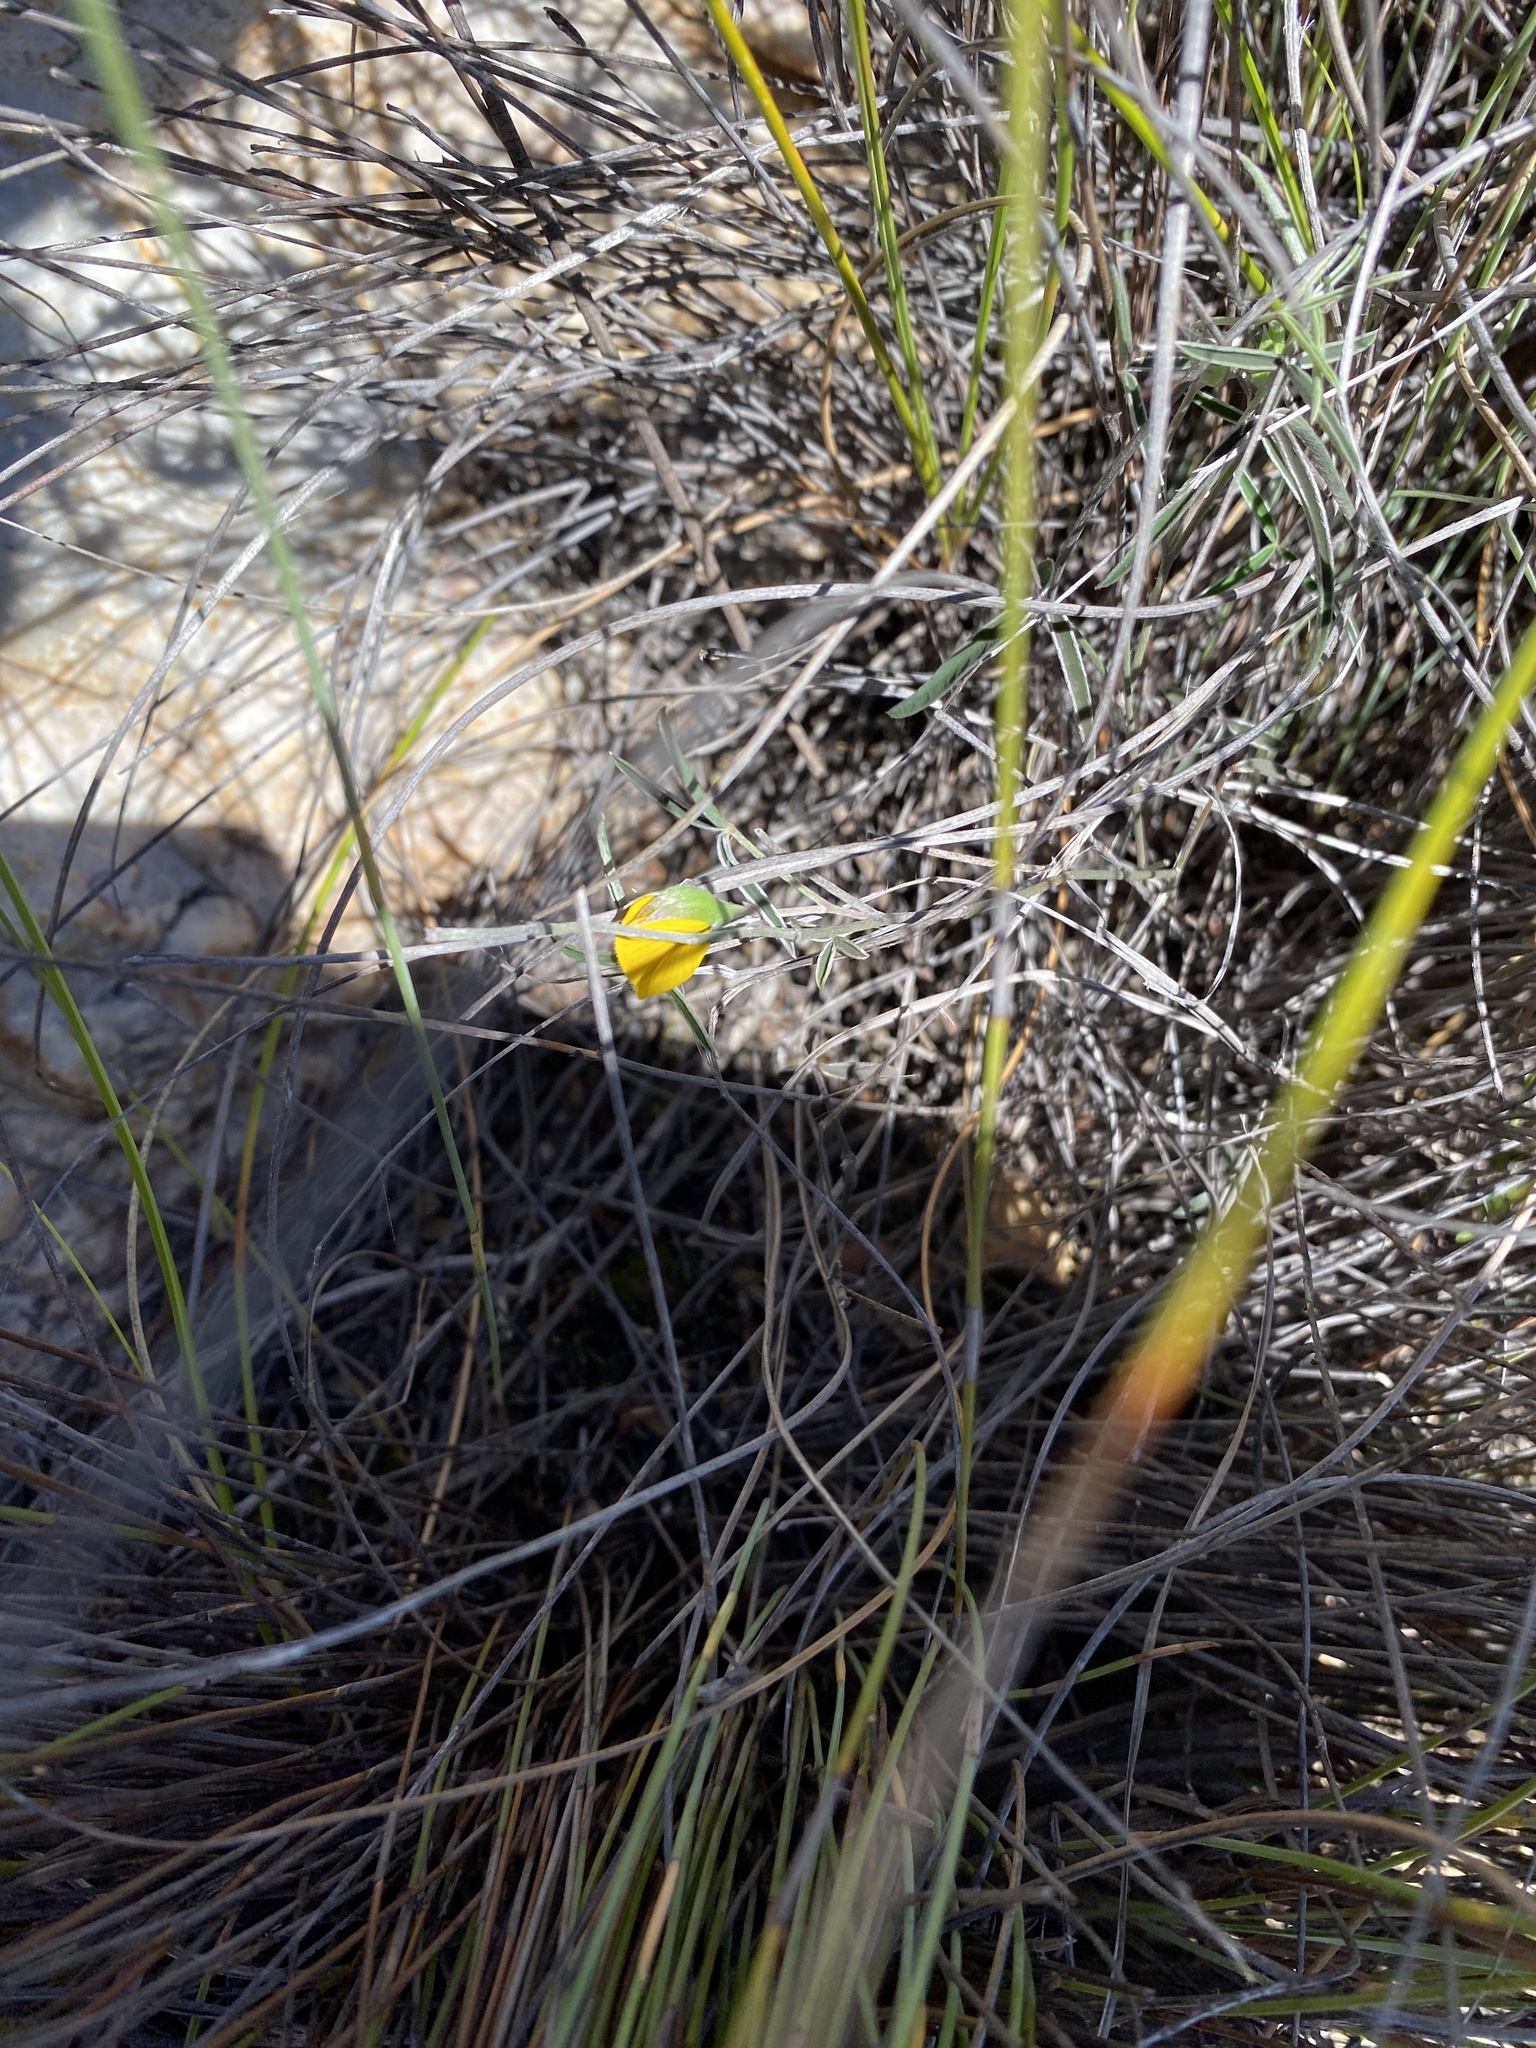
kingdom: Plantae
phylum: Tracheophyta
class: Magnoliopsida
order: Fabales
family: Fabaceae
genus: Argyrolobium
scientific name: Argyrolobium rarum
